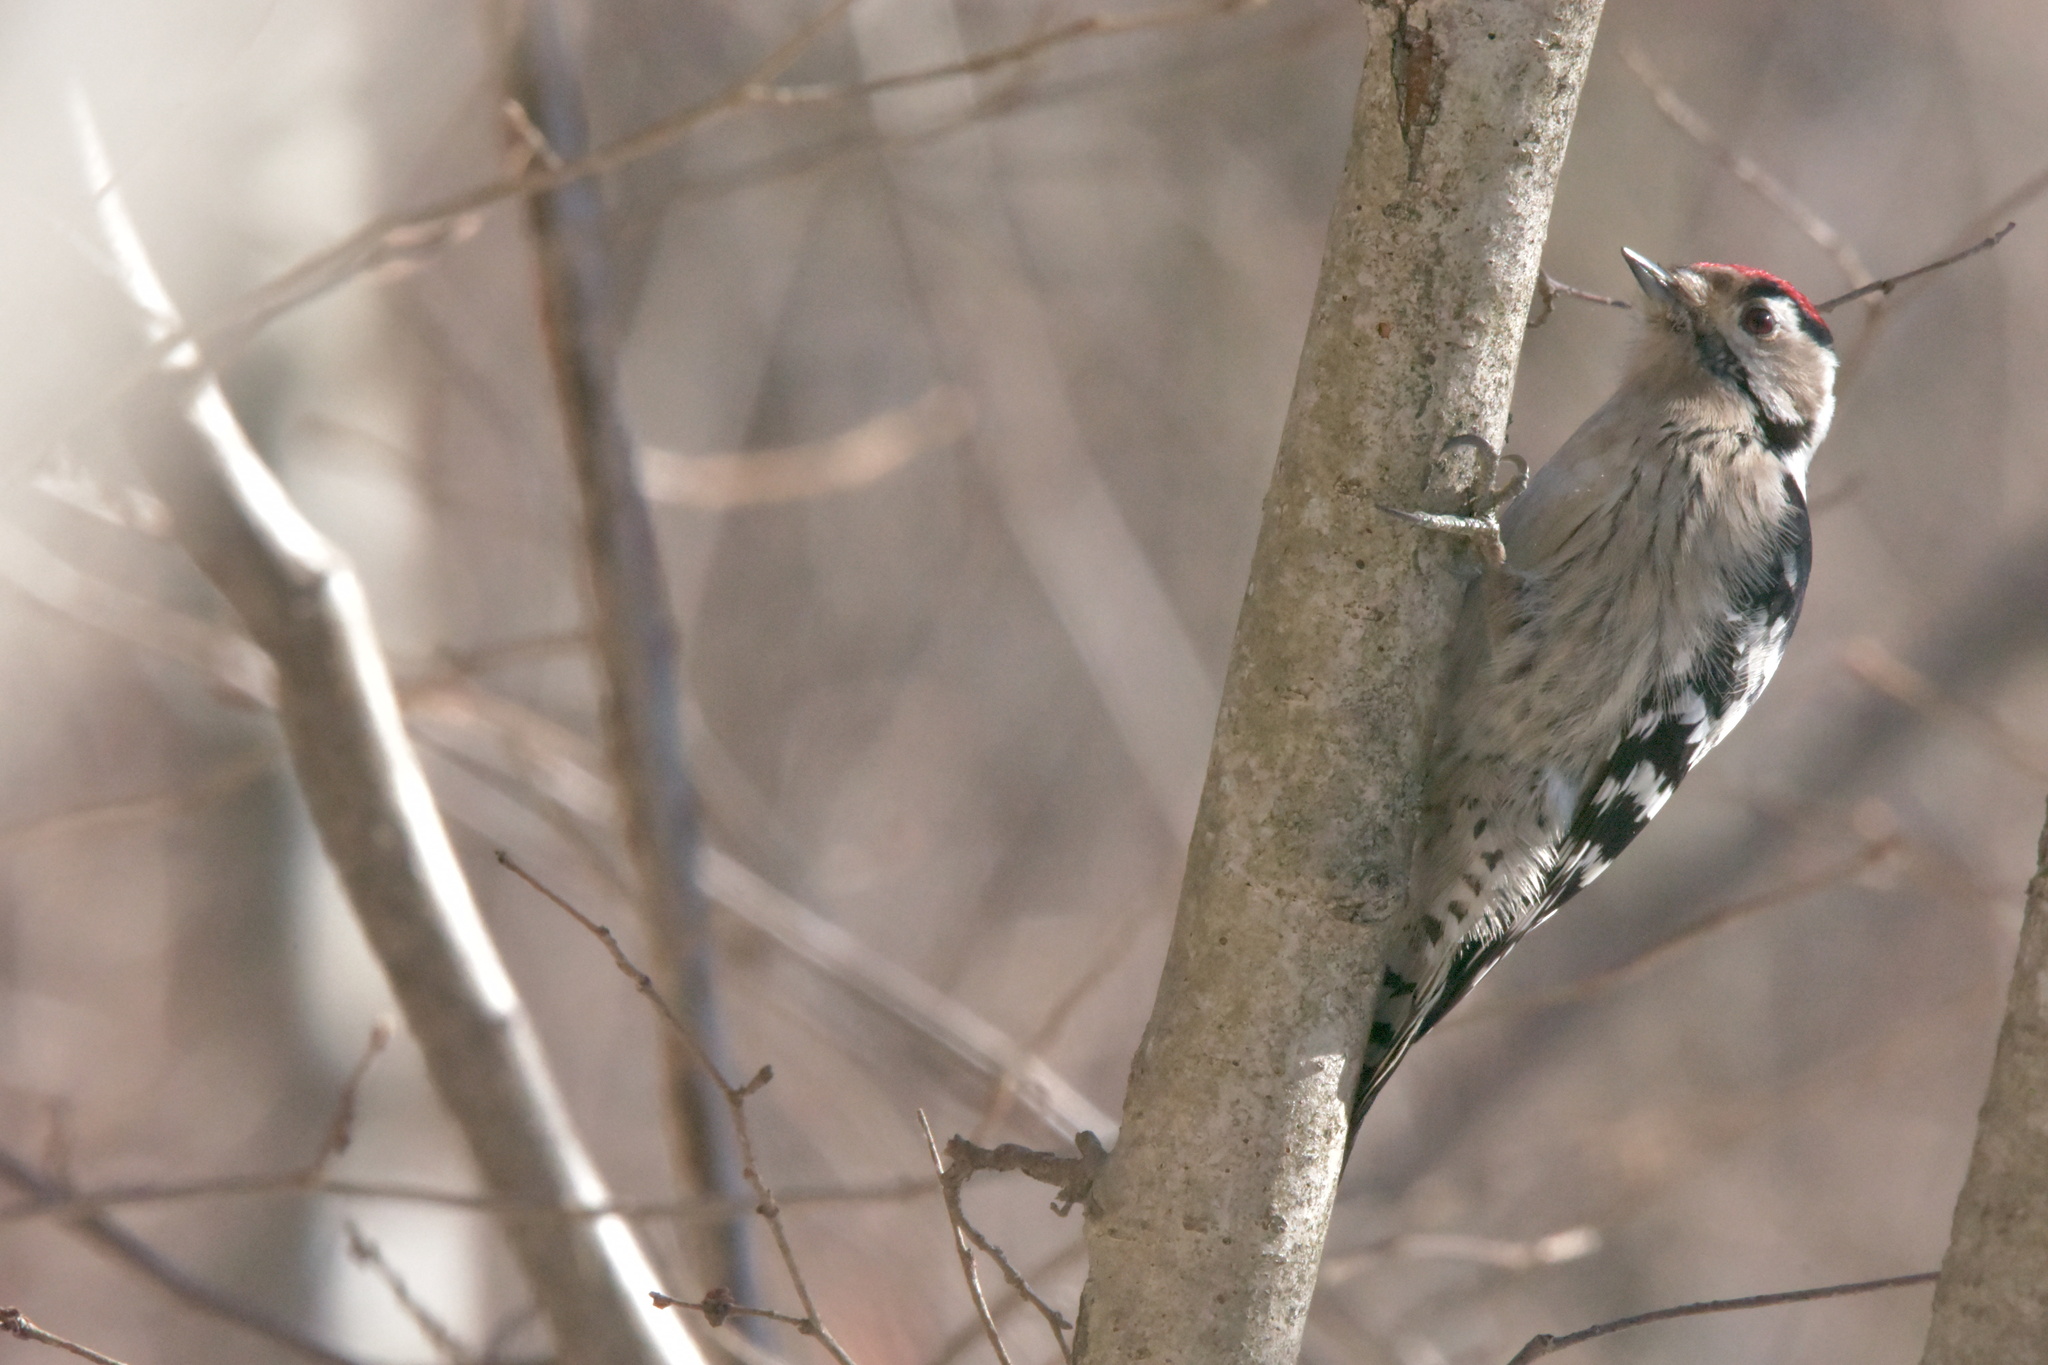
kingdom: Animalia
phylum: Chordata
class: Aves
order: Piciformes
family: Picidae
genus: Dryobates
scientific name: Dryobates minor
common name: Lesser spotted woodpecker
